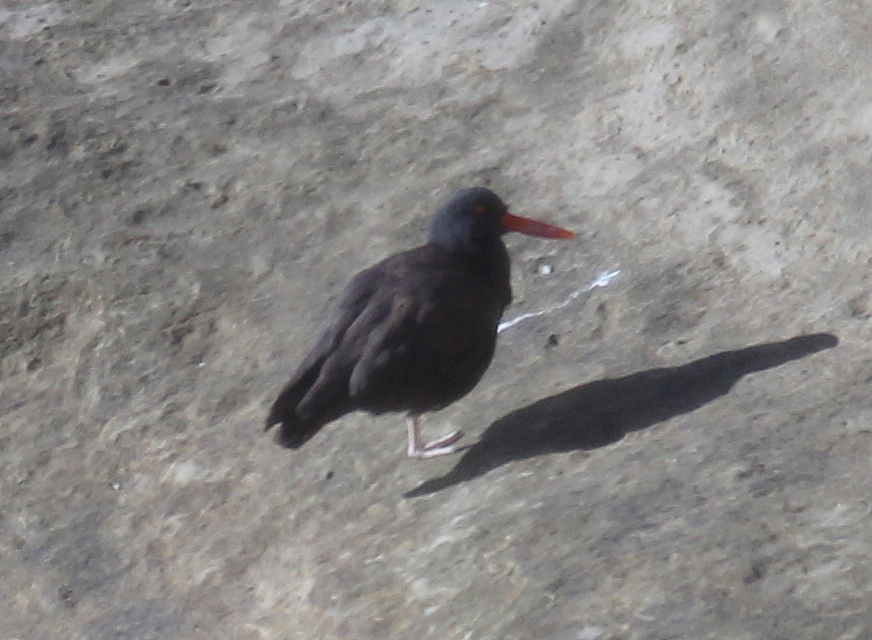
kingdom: Animalia
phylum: Chordata
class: Aves
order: Charadriiformes
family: Haematopodidae
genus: Haematopus
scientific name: Haematopus ater
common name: Blackish oystercatcher
